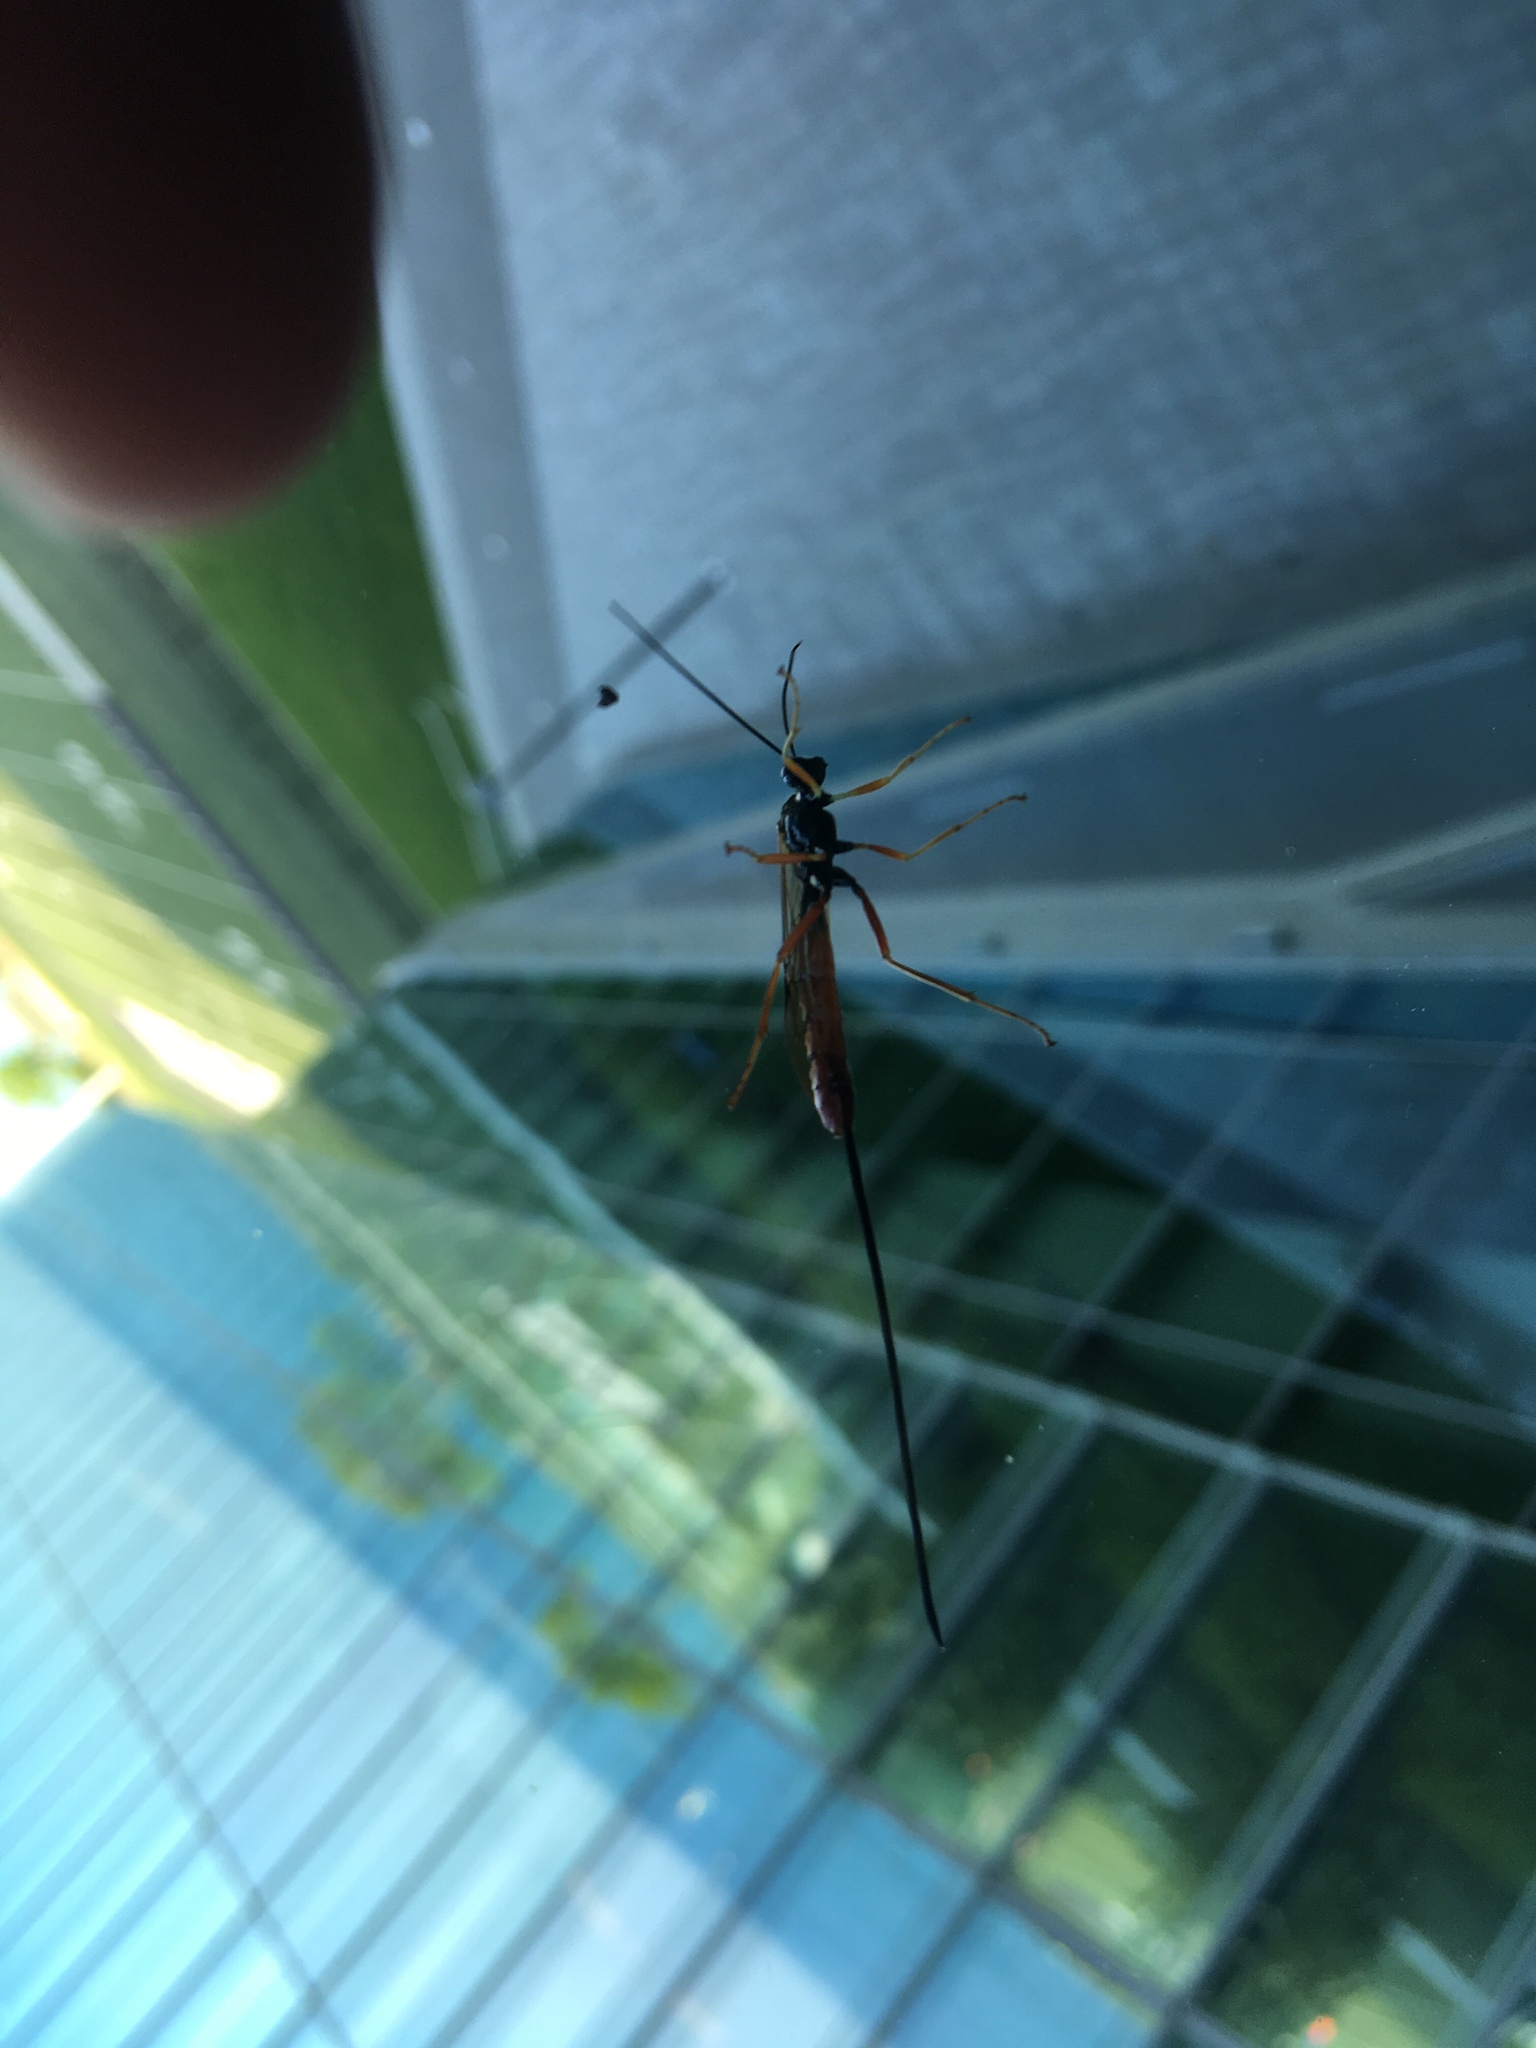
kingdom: Animalia
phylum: Arthropoda
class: Insecta
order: Hymenoptera
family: Ichneumonidae
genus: Dolichomitus
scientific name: Dolichomitus irritator
